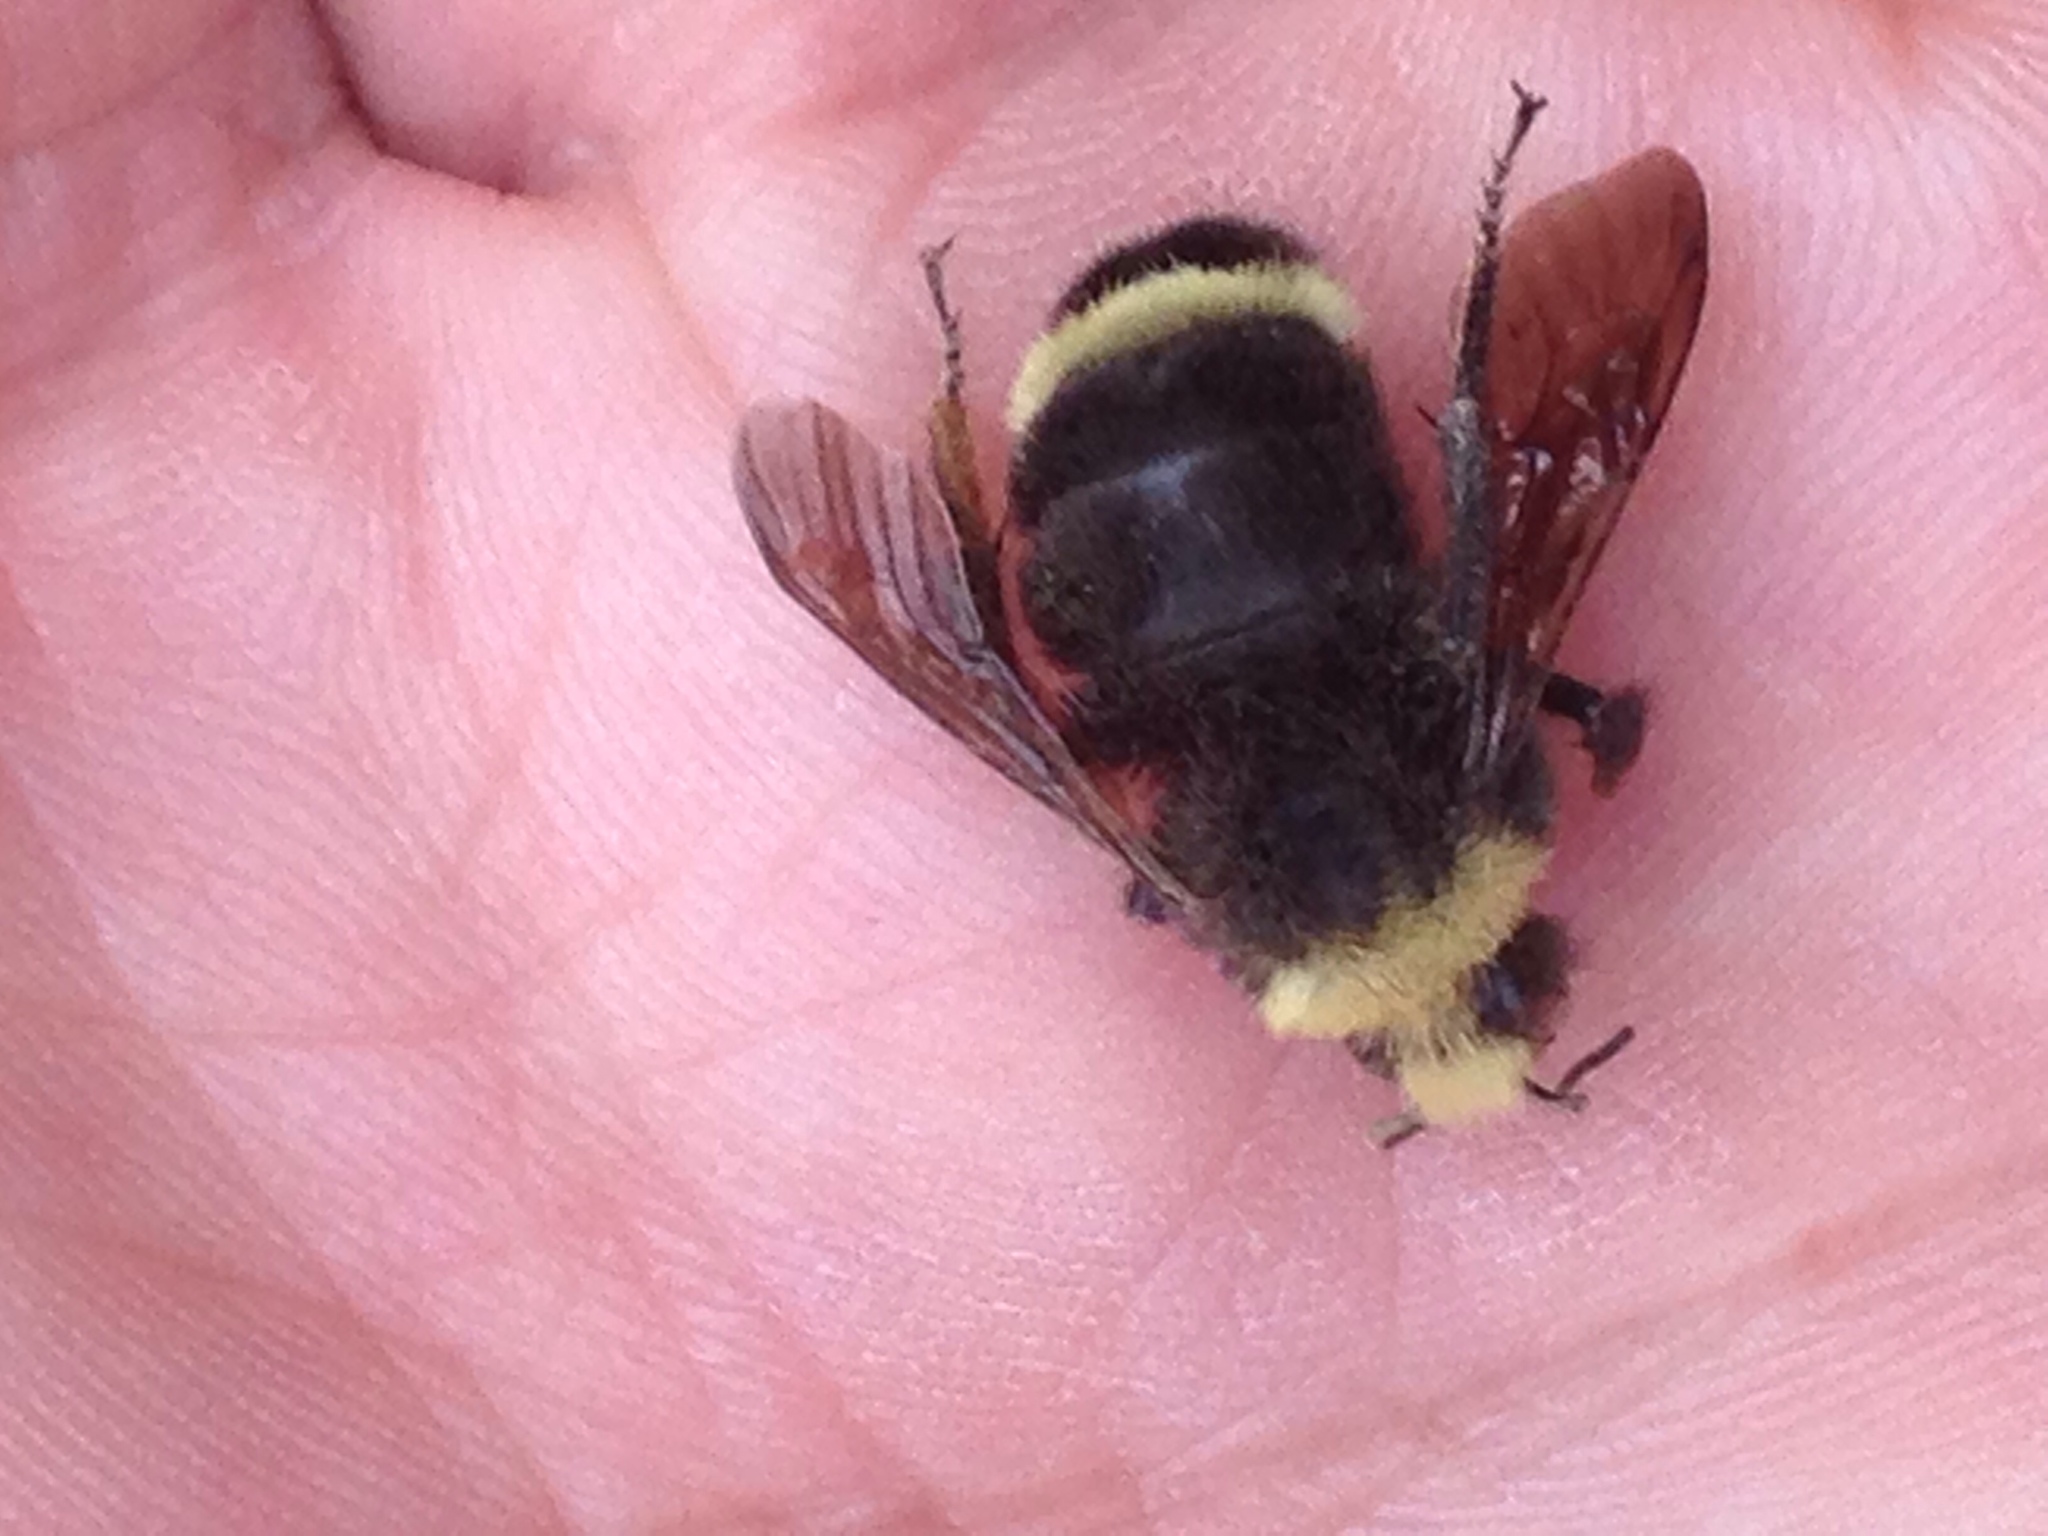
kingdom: Animalia
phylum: Arthropoda
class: Insecta
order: Hymenoptera
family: Apidae
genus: Bombus
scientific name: Bombus vosnesenskii
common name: Vosnesensky bumble bee
